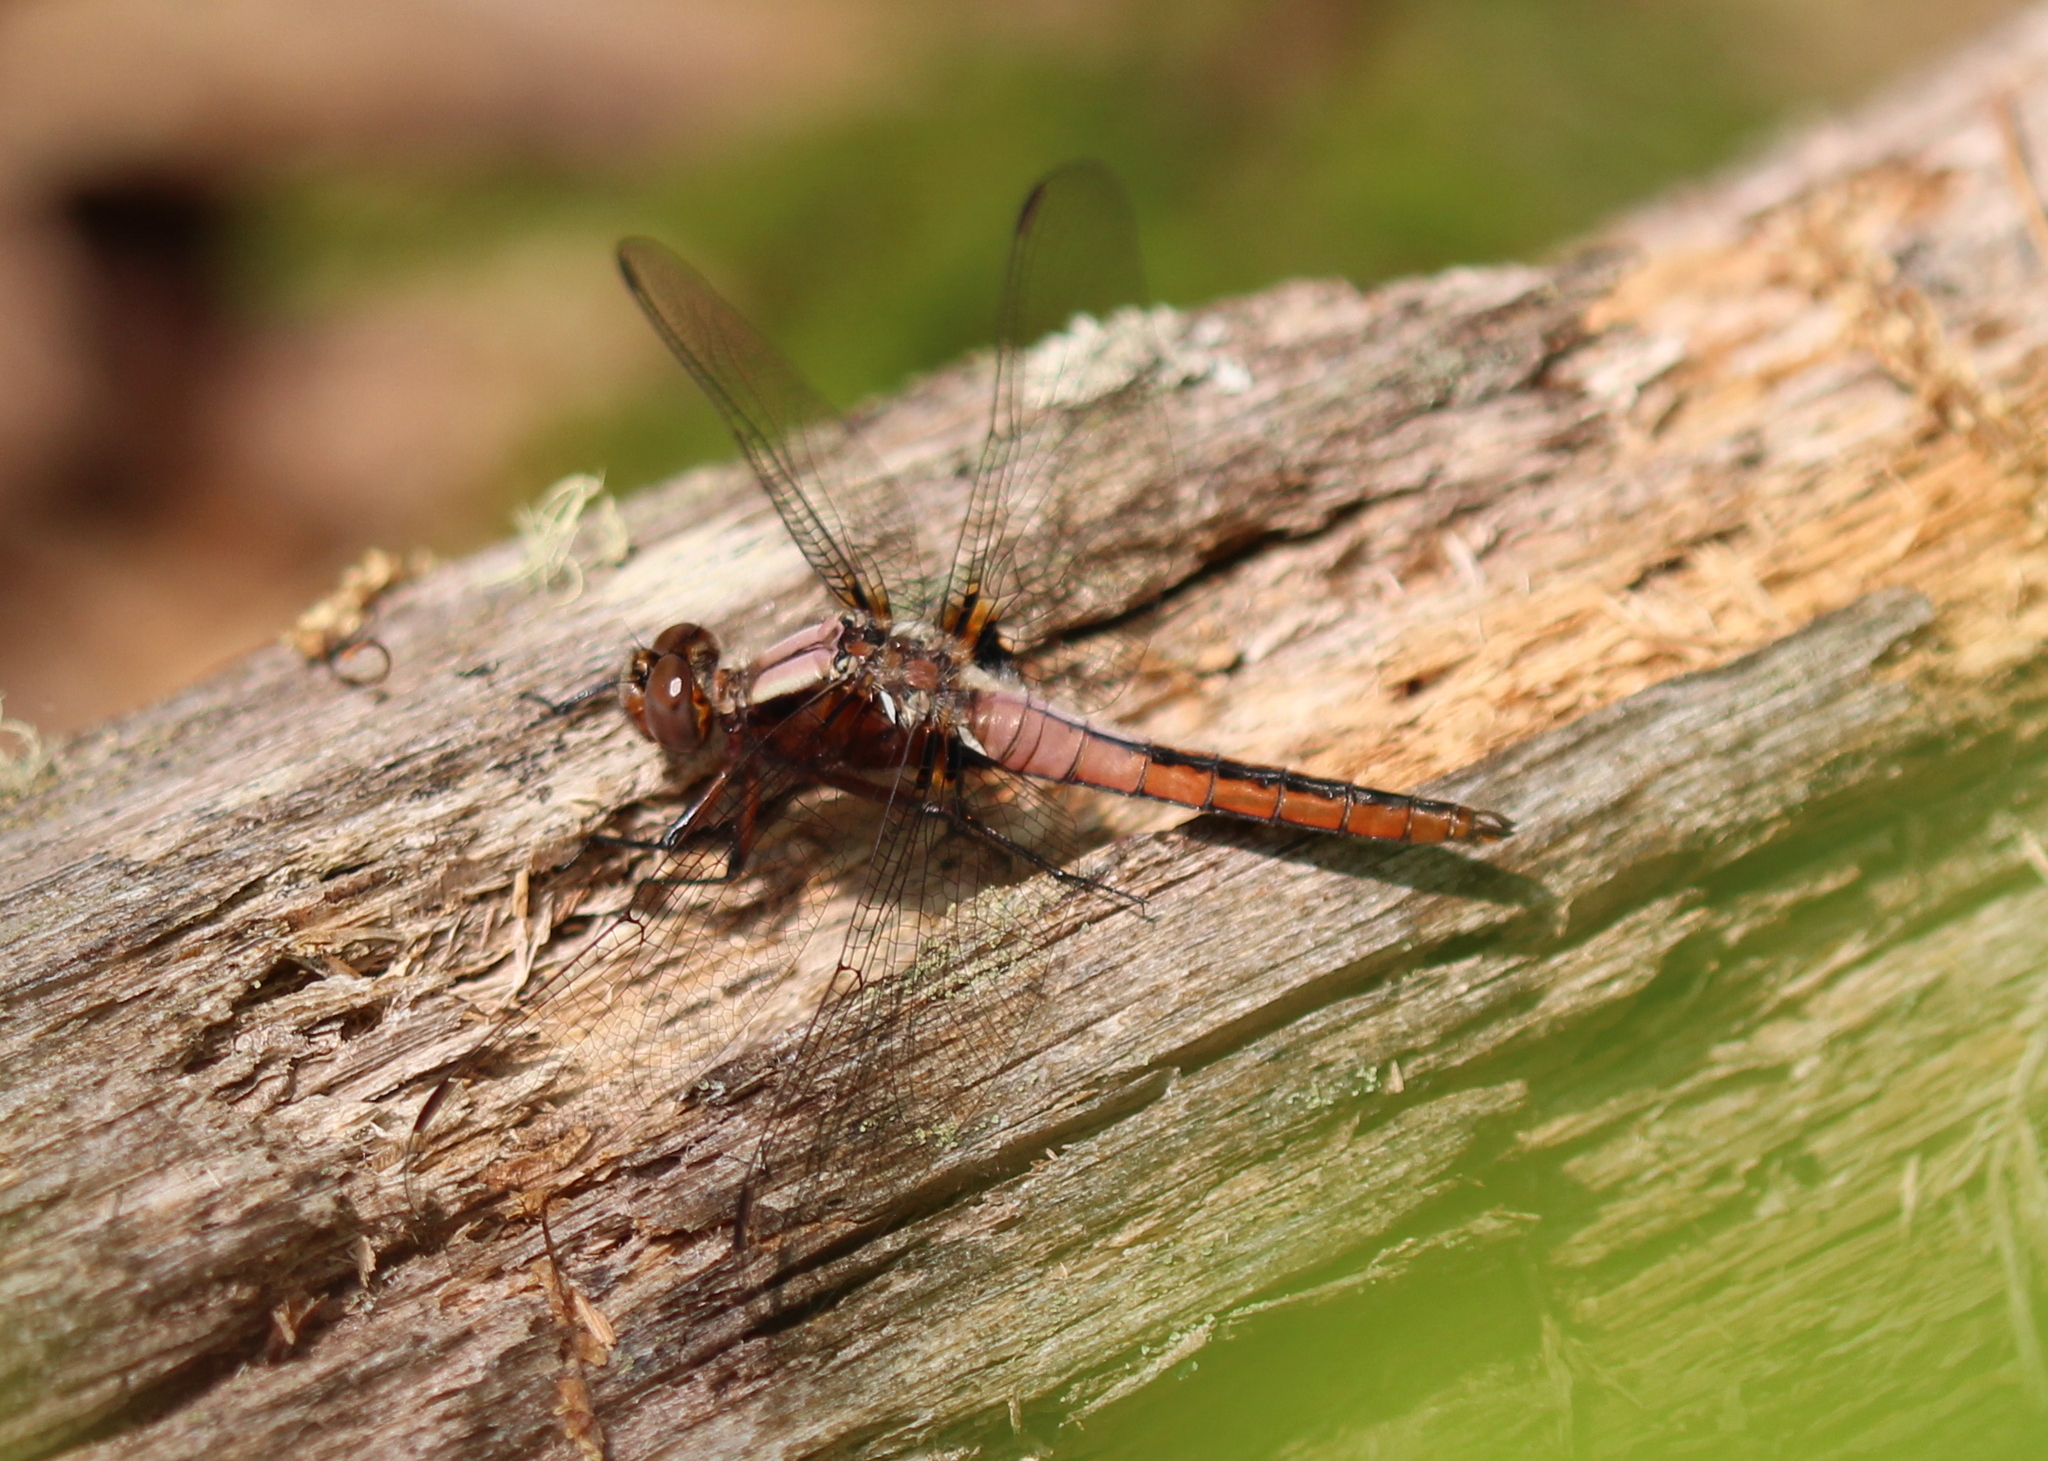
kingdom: Animalia
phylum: Arthropoda
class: Insecta
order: Odonata
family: Libellulidae
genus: Ladona
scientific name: Ladona julia
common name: Chalk-fronted corporal
